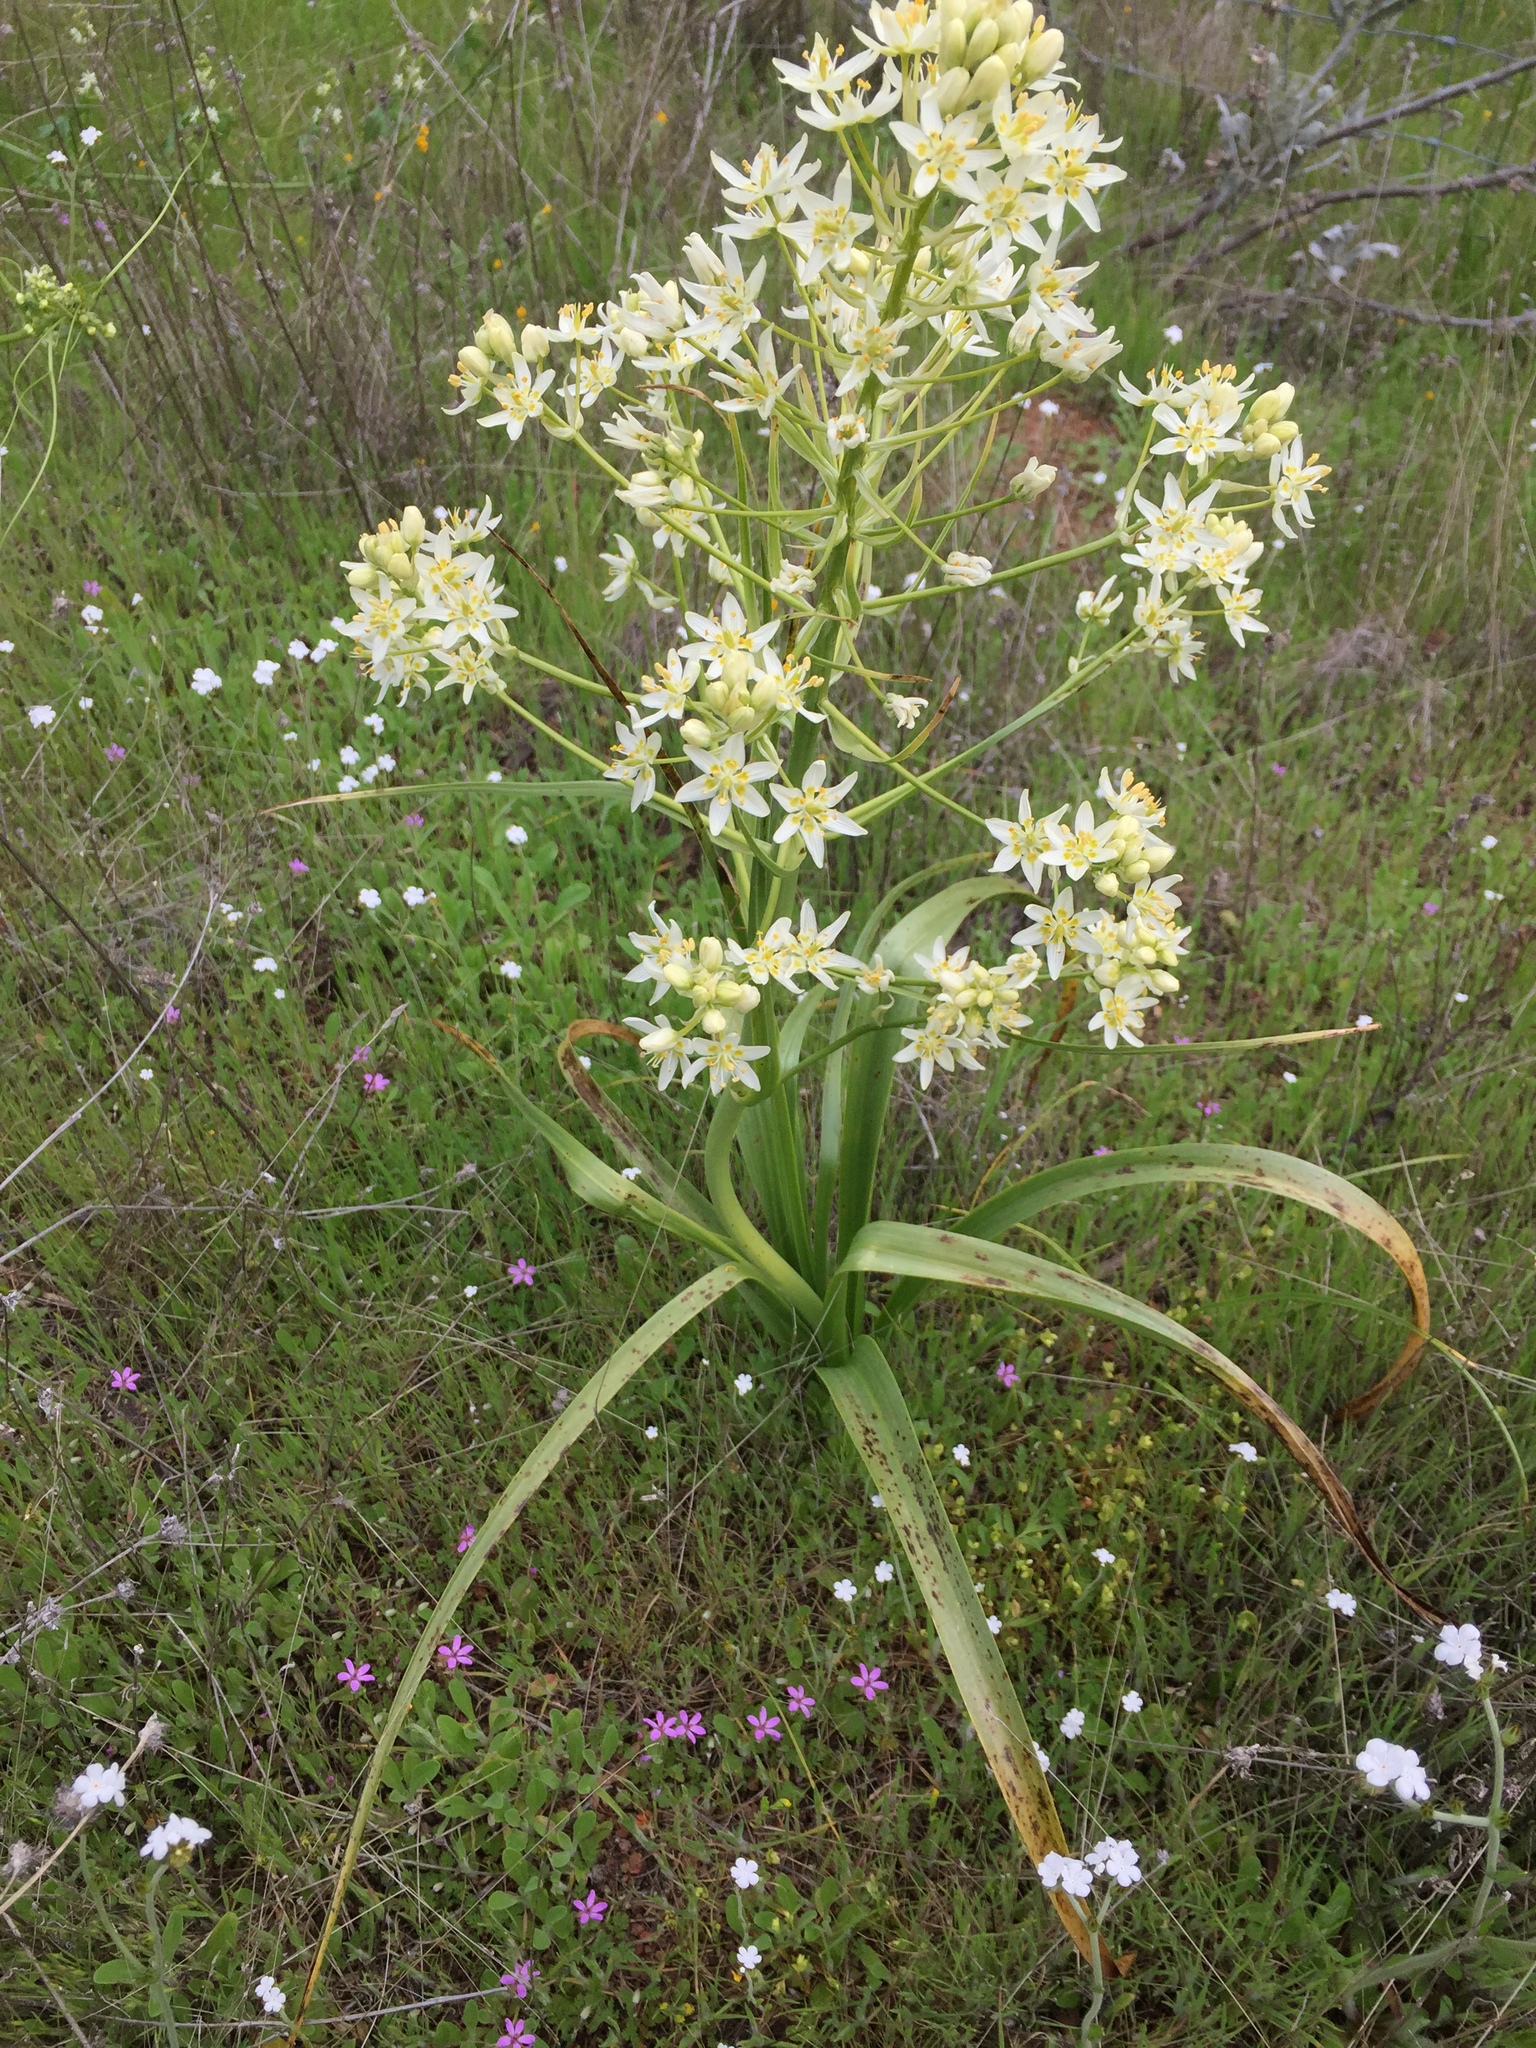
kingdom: Plantae
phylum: Tracheophyta
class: Liliopsida
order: Liliales
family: Melanthiaceae
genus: Toxicoscordion
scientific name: Toxicoscordion fremontii
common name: Fremont's death camas
